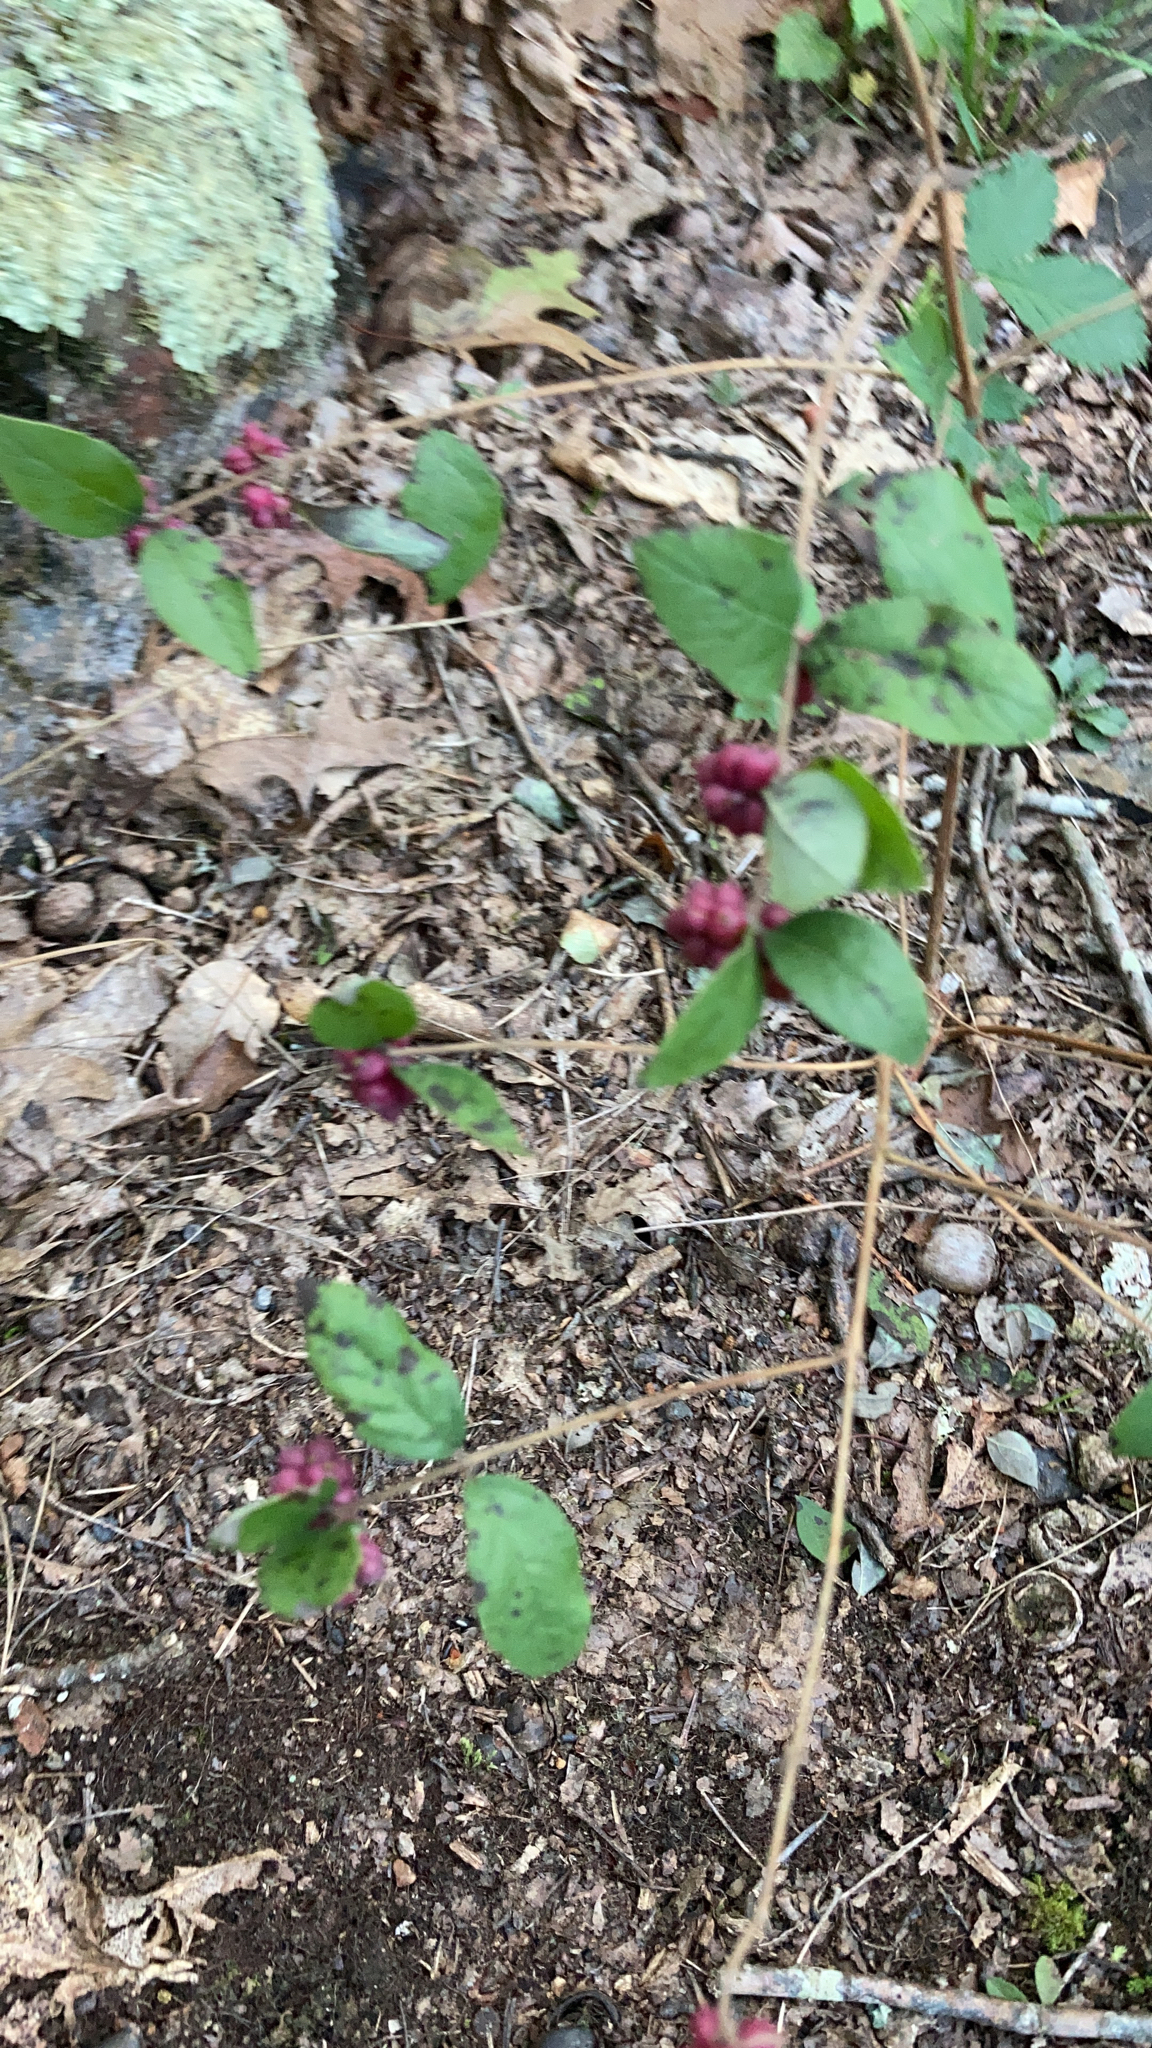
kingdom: Plantae
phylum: Tracheophyta
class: Magnoliopsida
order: Dipsacales
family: Caprifoliaceae
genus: Symphoricarpos
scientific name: Symphoricarpos orbiculatus
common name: Coralberry
